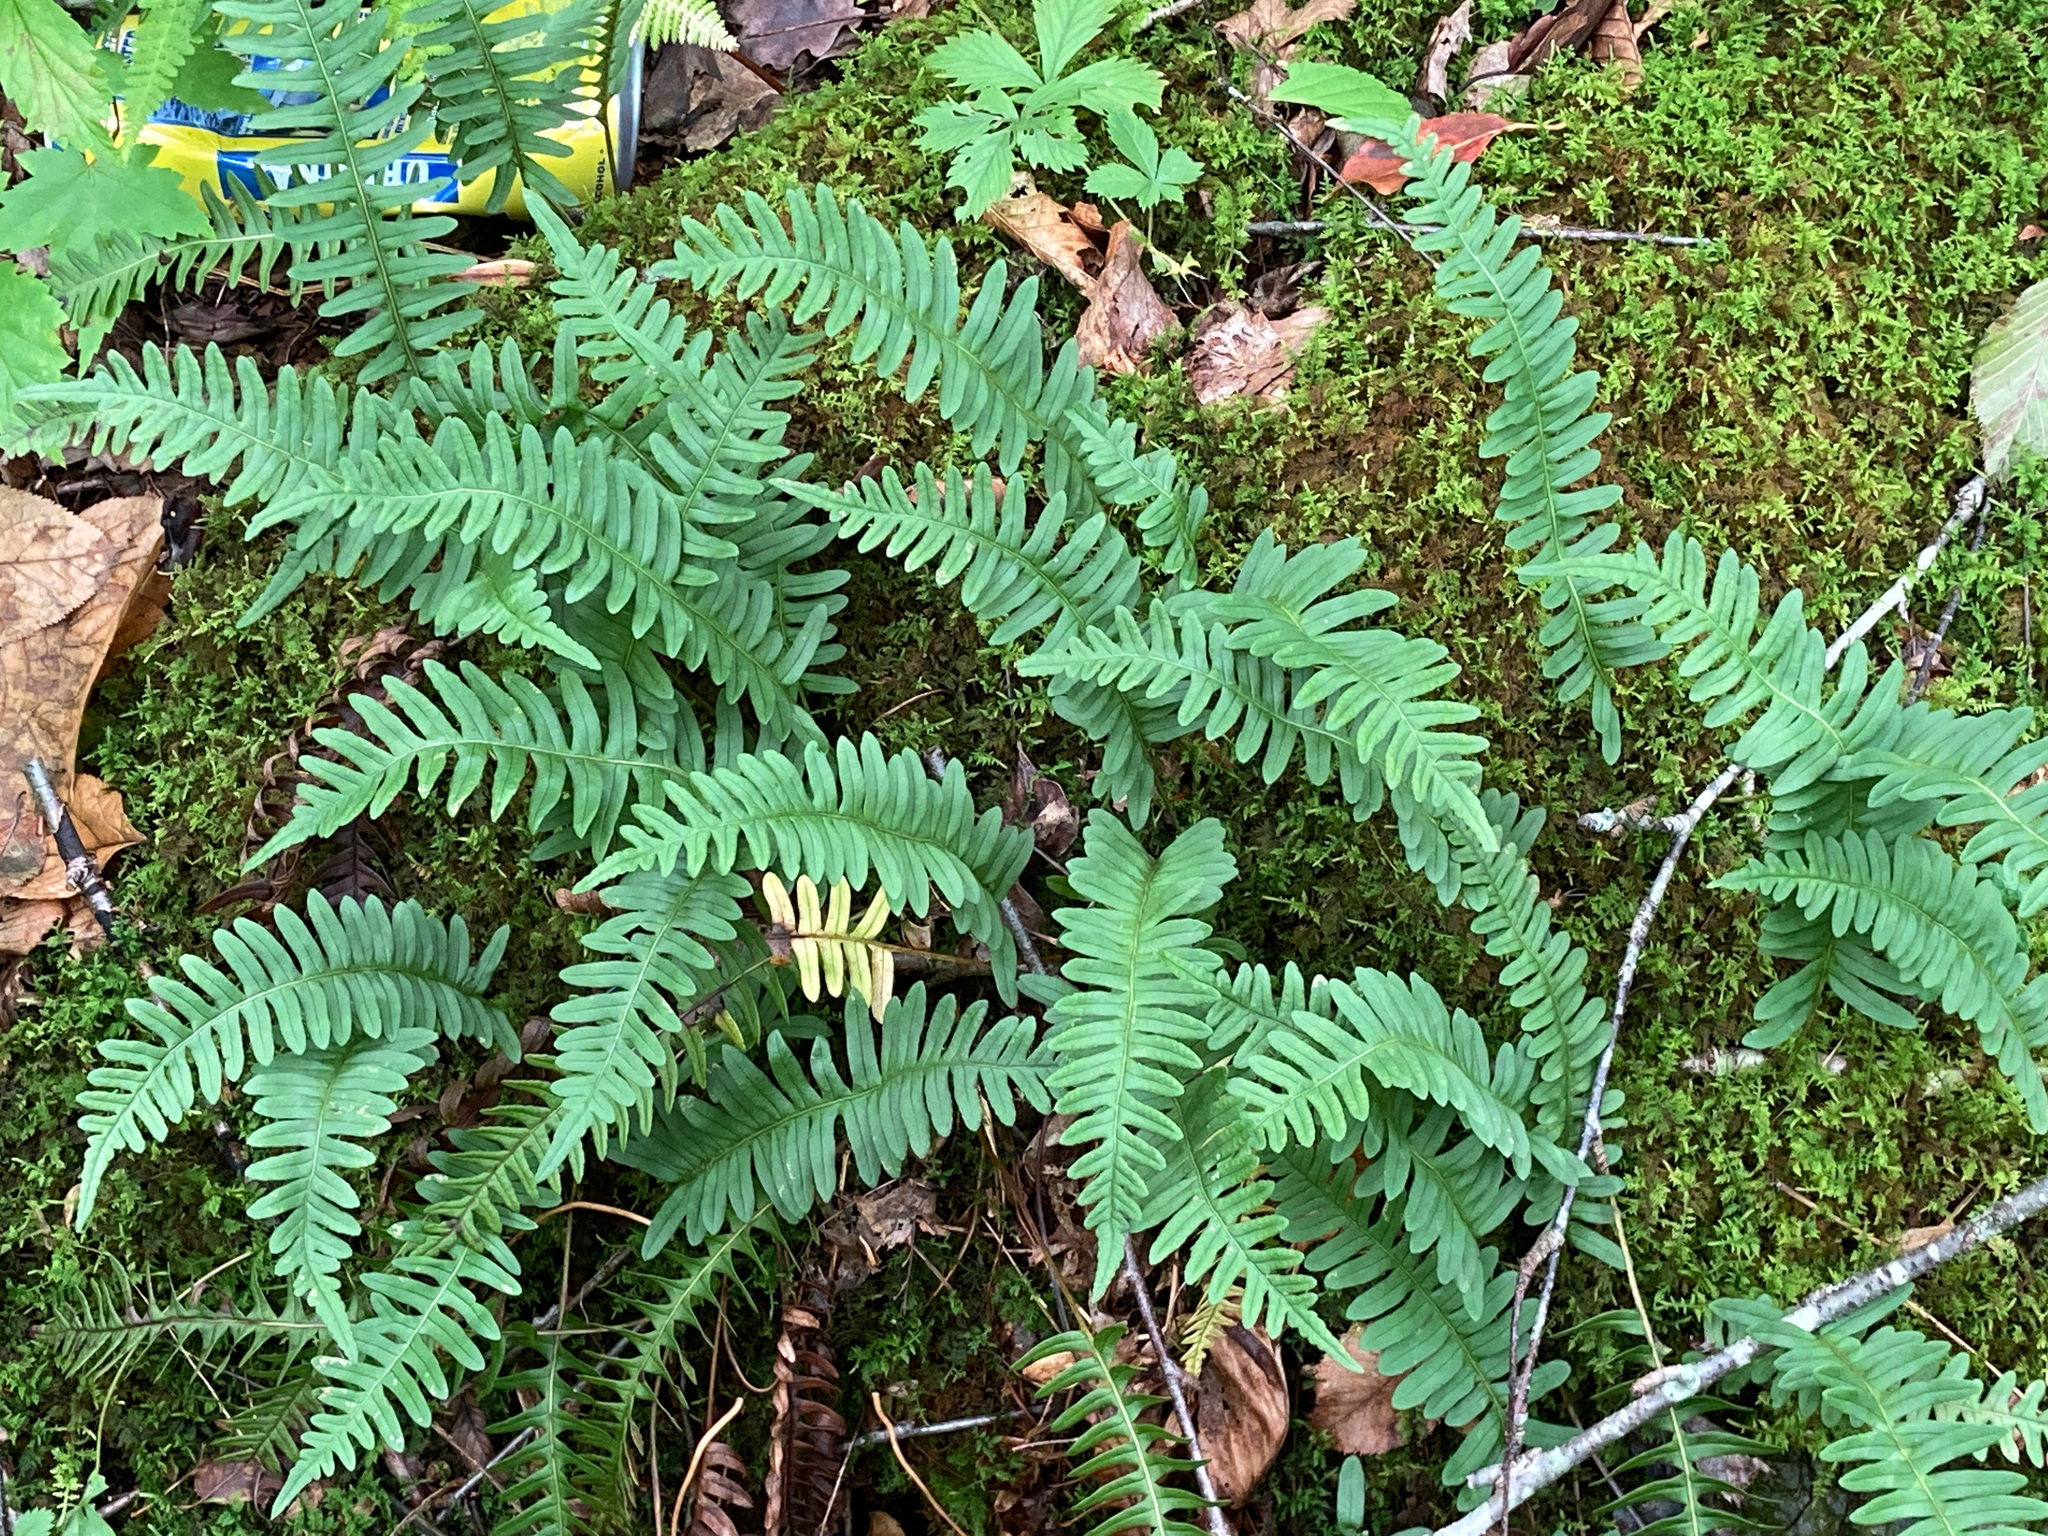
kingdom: Plantae
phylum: Tracheophyta
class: Polypodiopsida
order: Polypodiales
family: Polypodiaceae
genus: Polypodium
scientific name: Polypodium virginianum
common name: American wall fern
